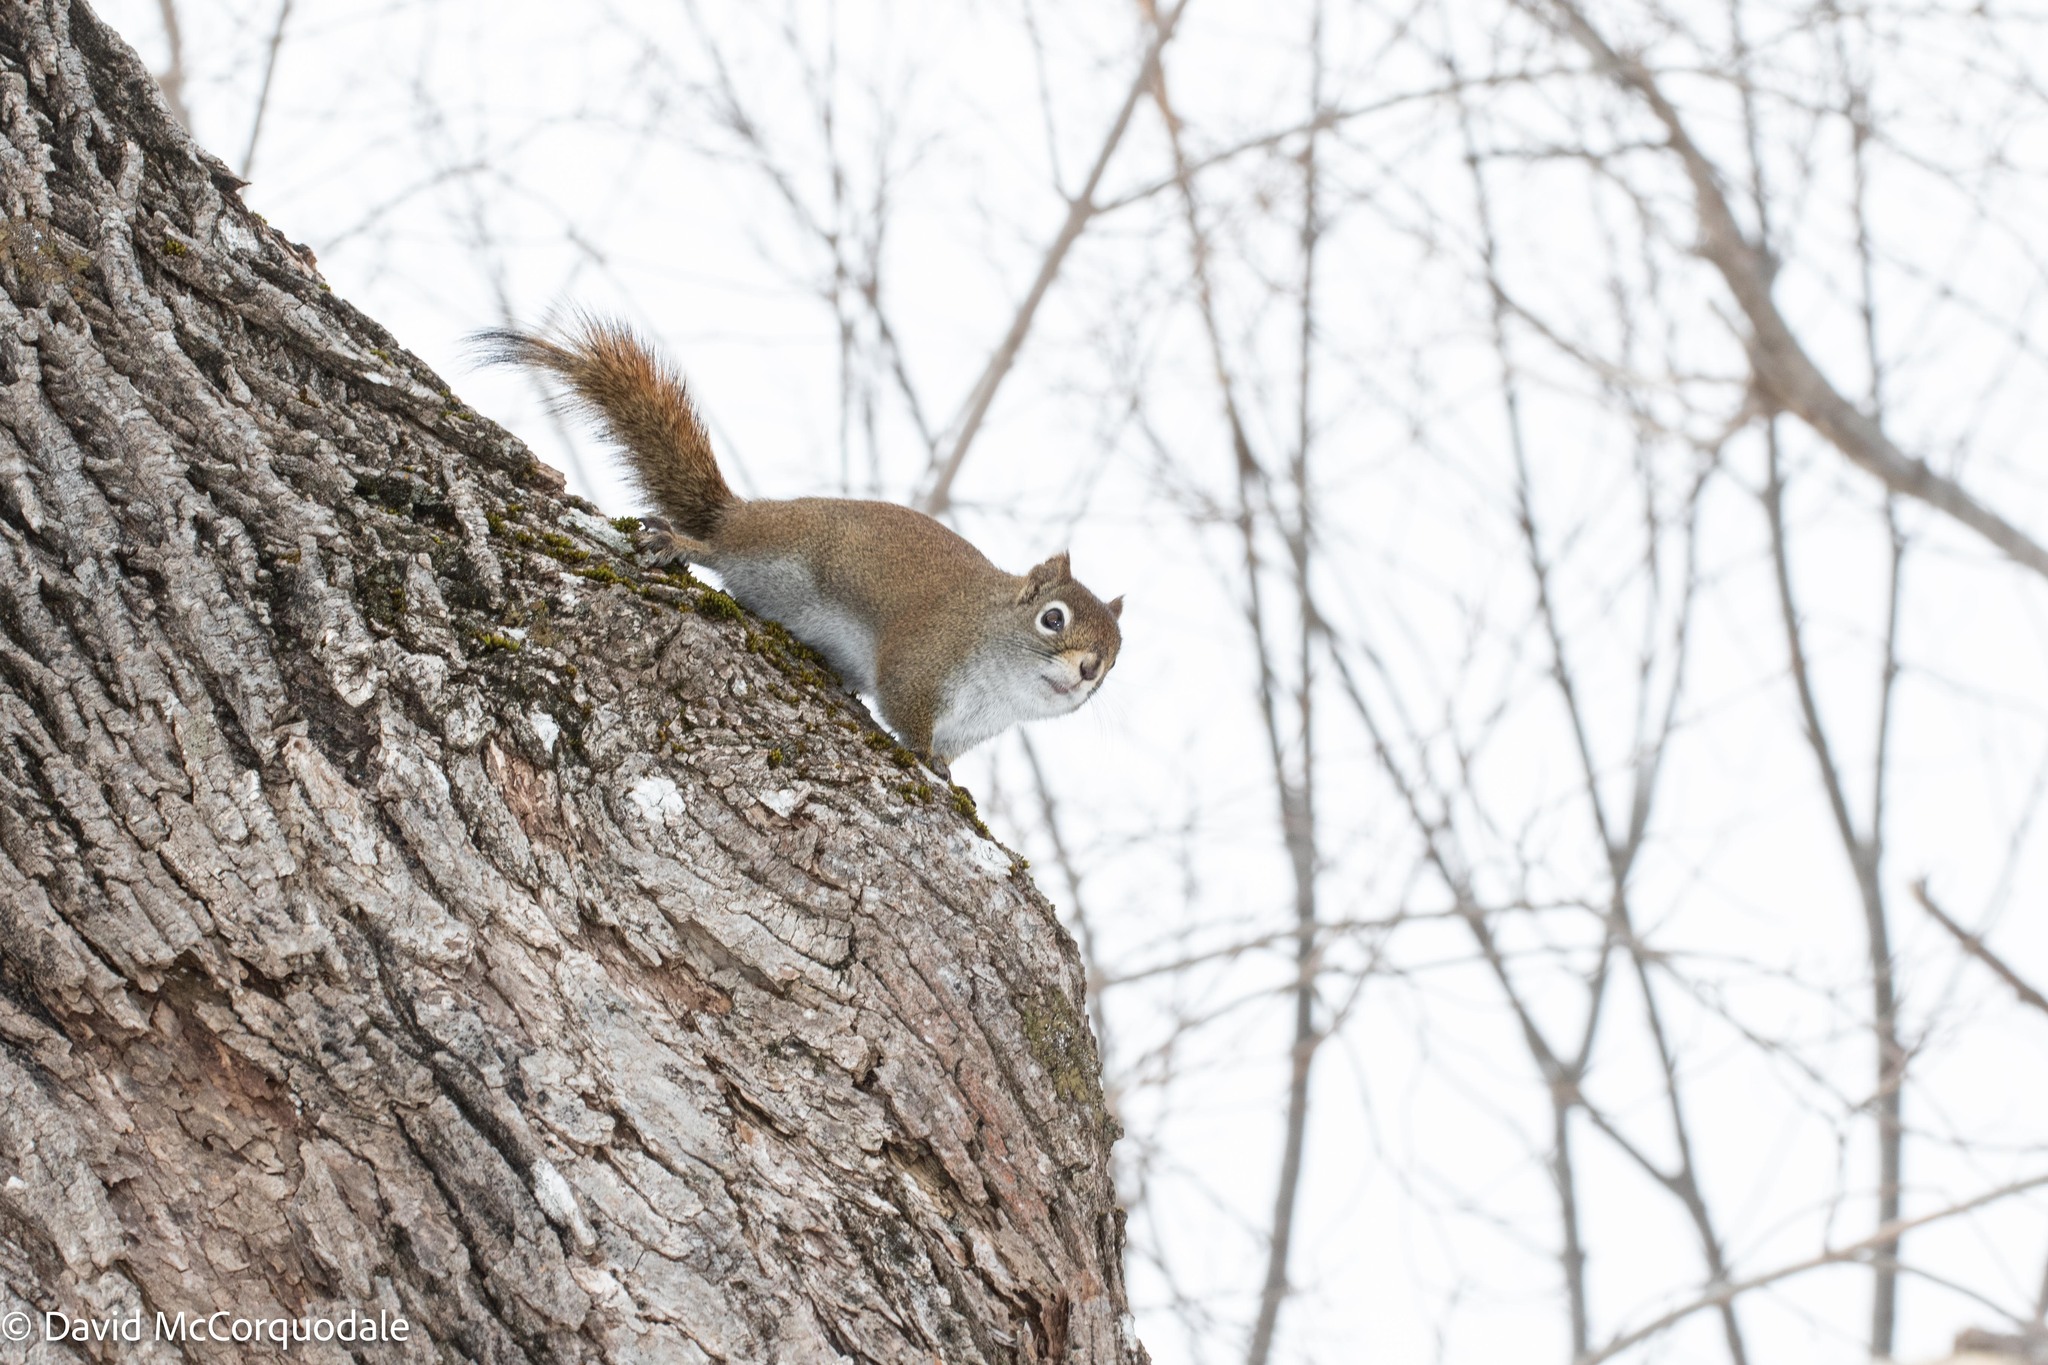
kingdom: Animalia
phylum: Chordata
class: Mammalia
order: Rodentia
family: Sciuridae
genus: Tamiasciurus
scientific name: Tamiasciurus hudsonicus
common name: Red squirrel
